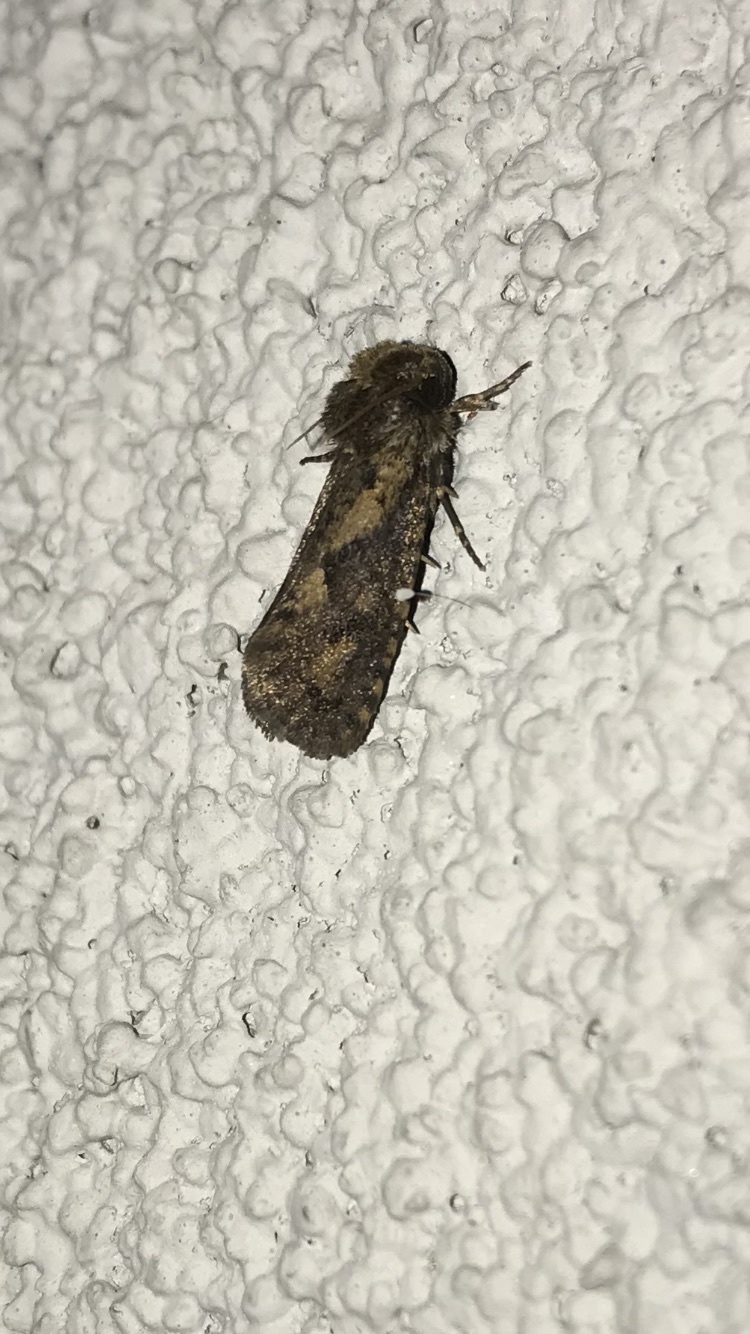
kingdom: Animalia
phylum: Arthropoda
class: Insecta
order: Lepidoptera
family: Tineidae
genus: Acrolophus
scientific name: Acrolophus popeanella
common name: Clemens' grass tubeworm moth
